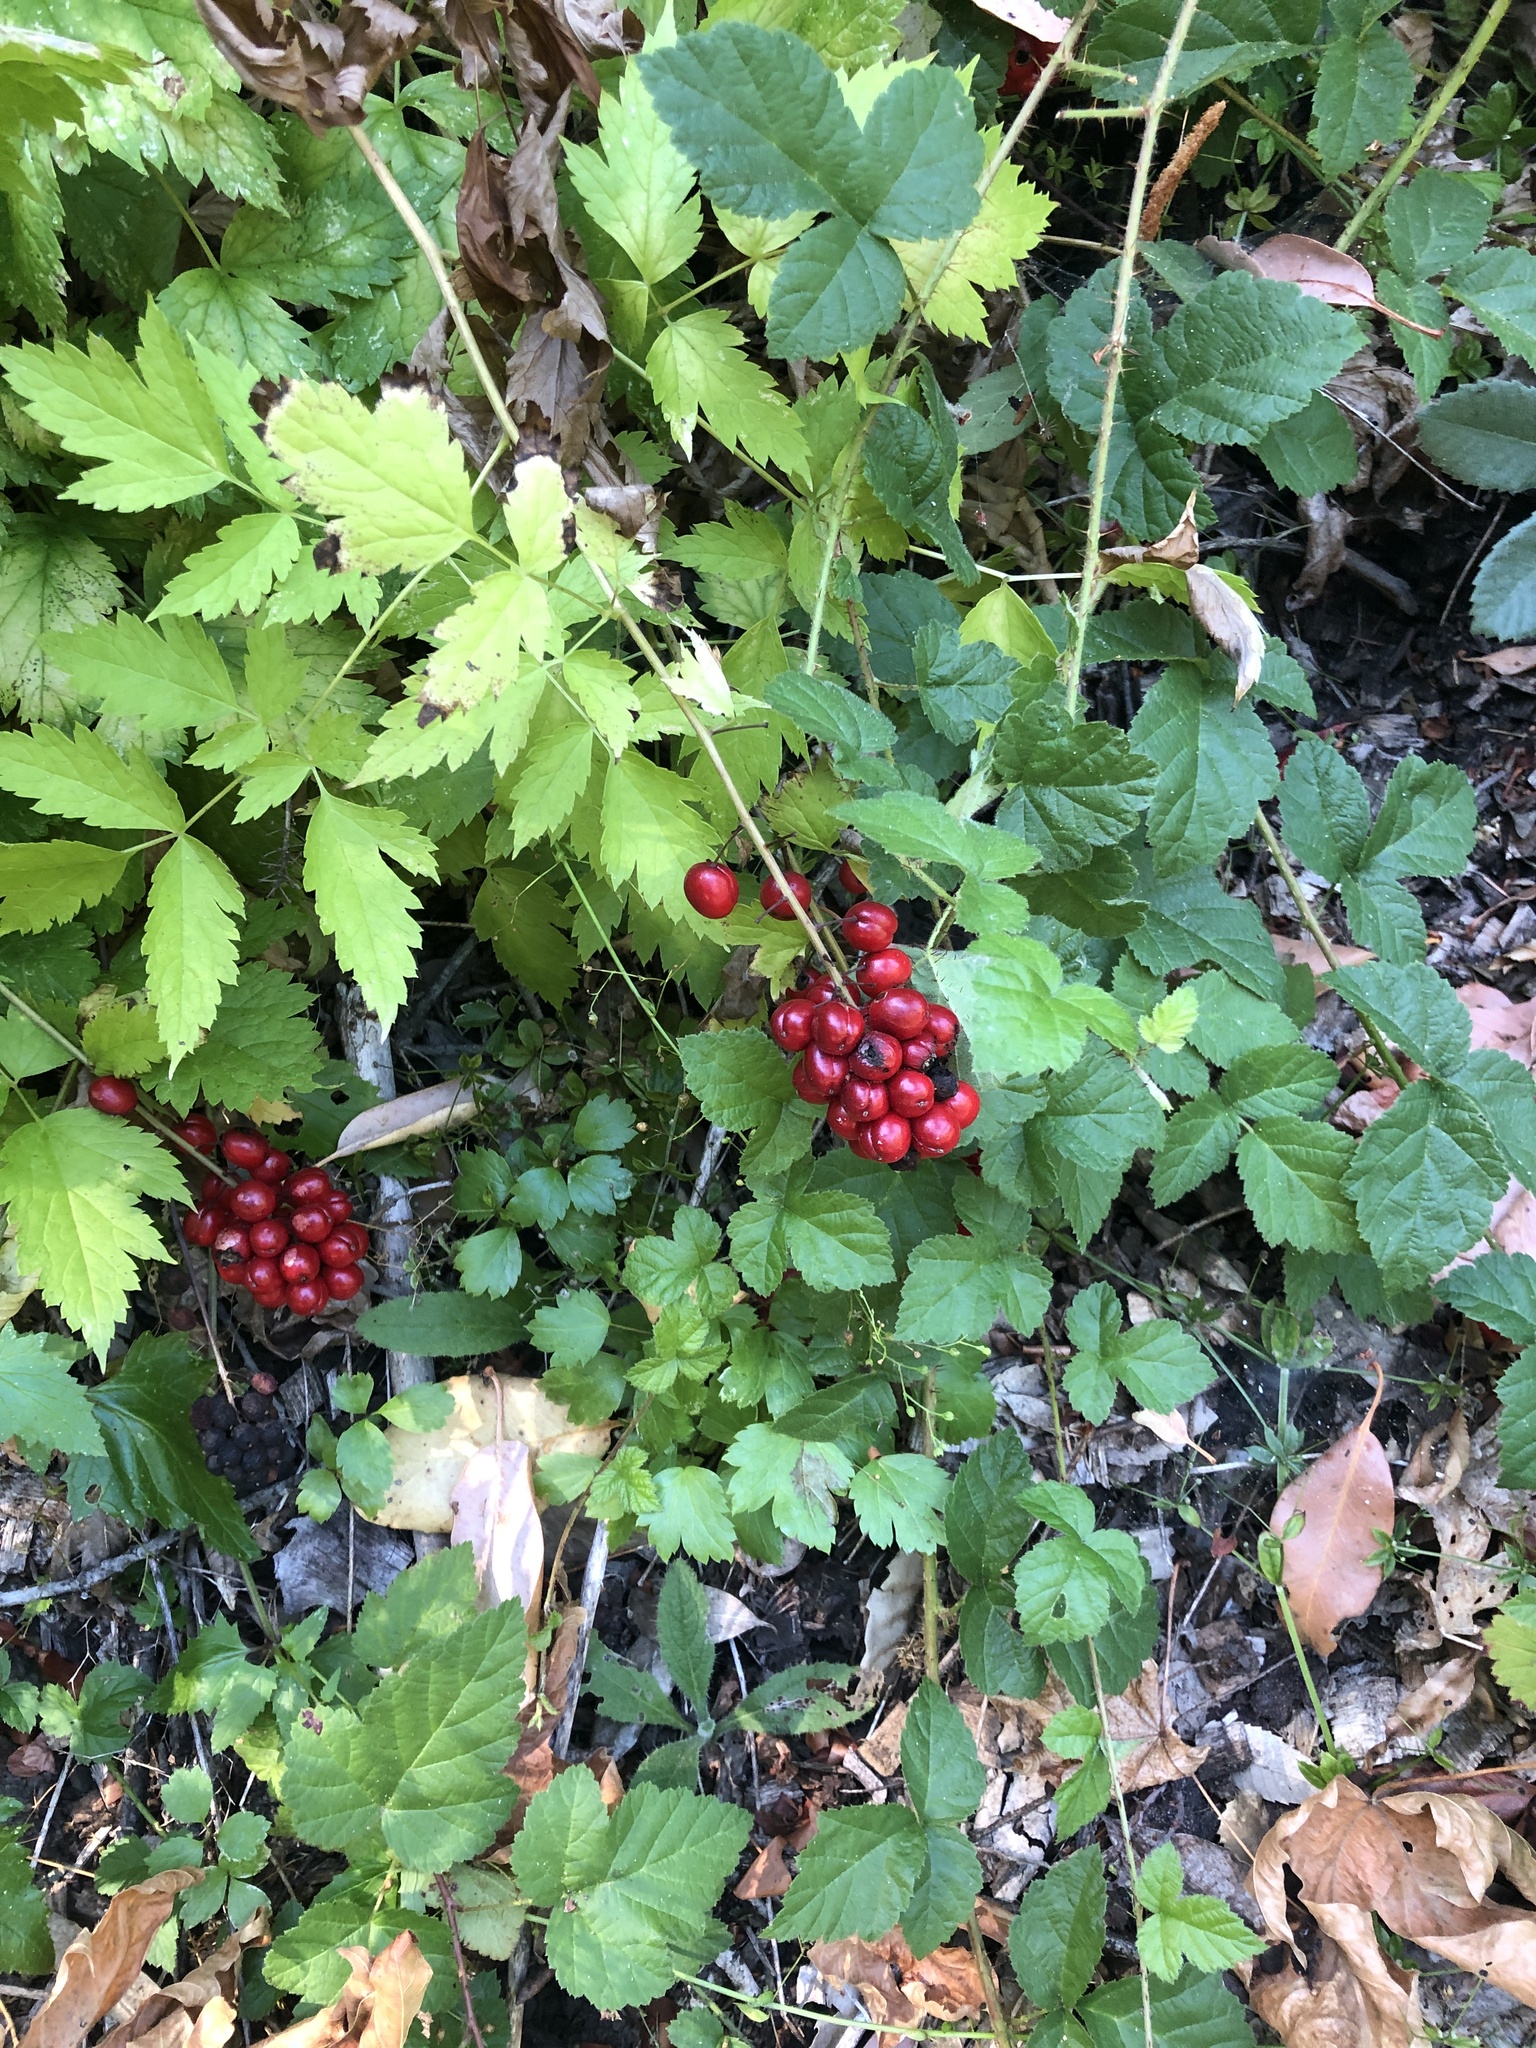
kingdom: Plantae
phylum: Tracheophyta
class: Magnoliopsida
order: Ranunculales
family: Ranunculaceae
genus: Actaea
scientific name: Actaea rubra
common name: Red baneberry
